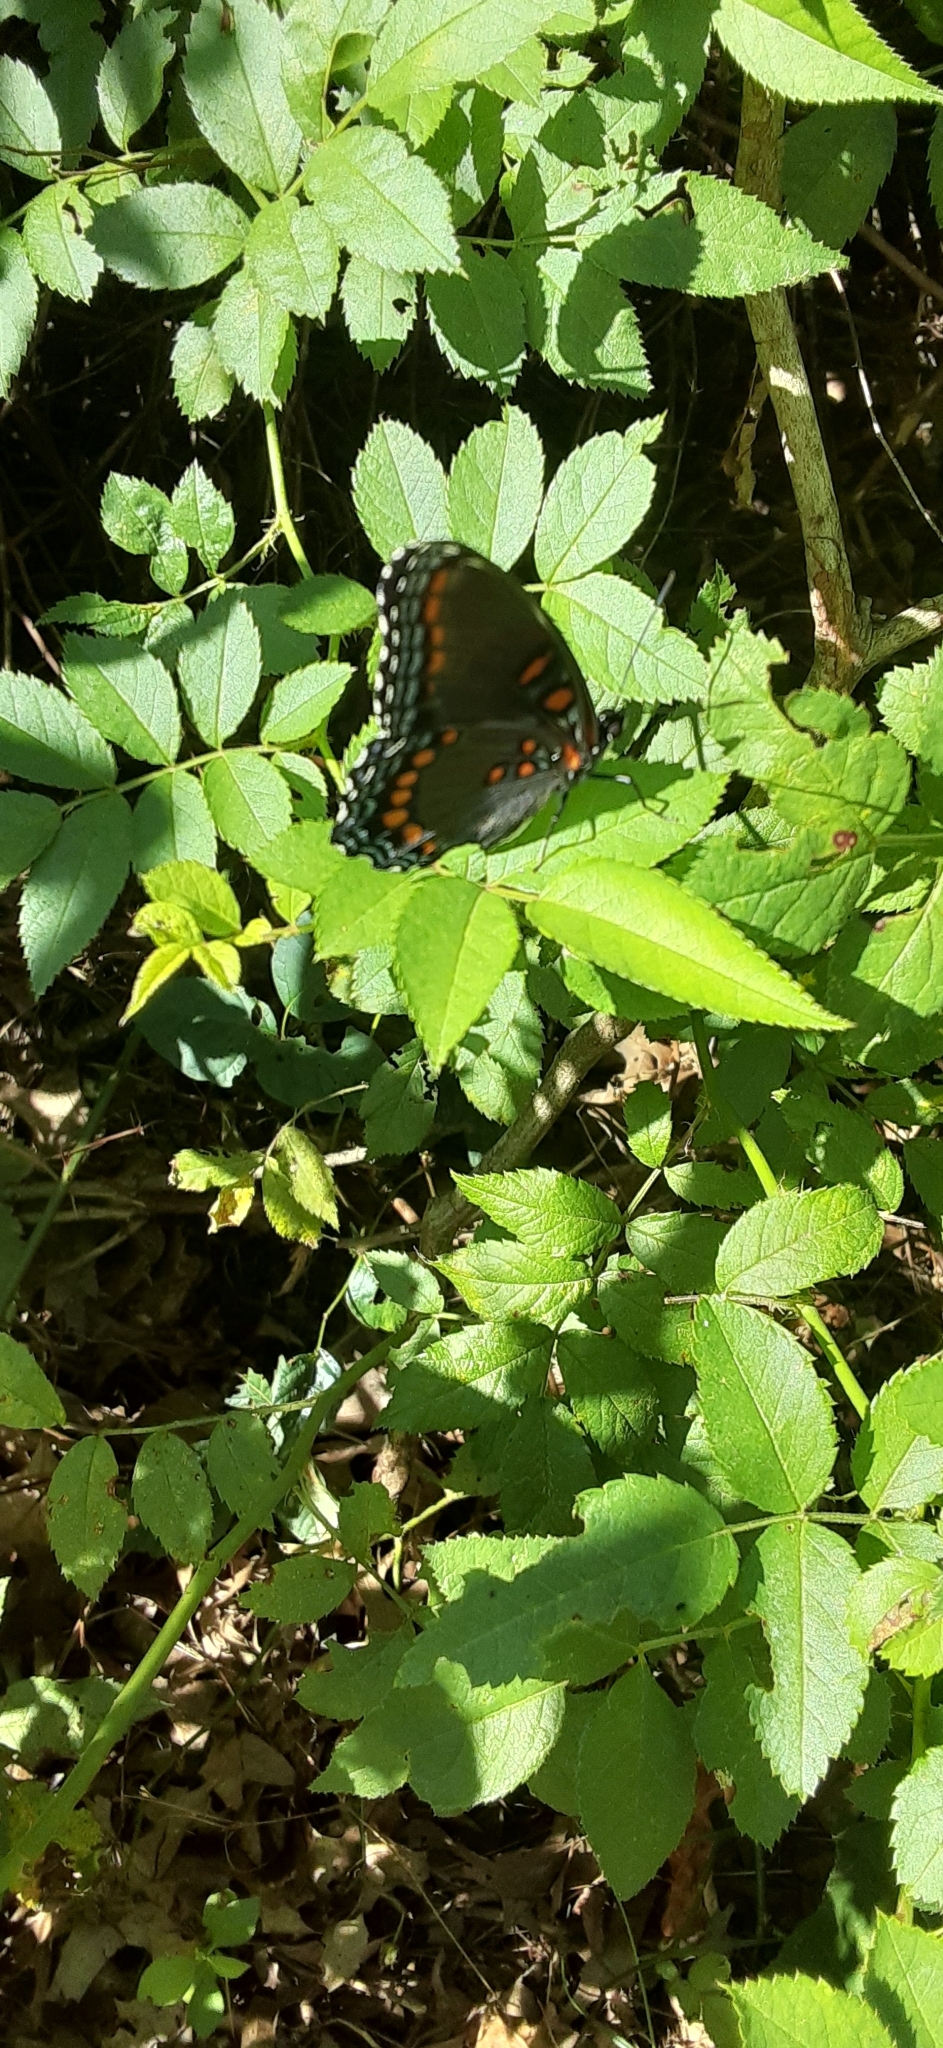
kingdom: Animalia
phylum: Arthropoda
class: Insecta
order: Lepidoptera
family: Nymphalidae
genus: Limenitis
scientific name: Limenitis astyanax
